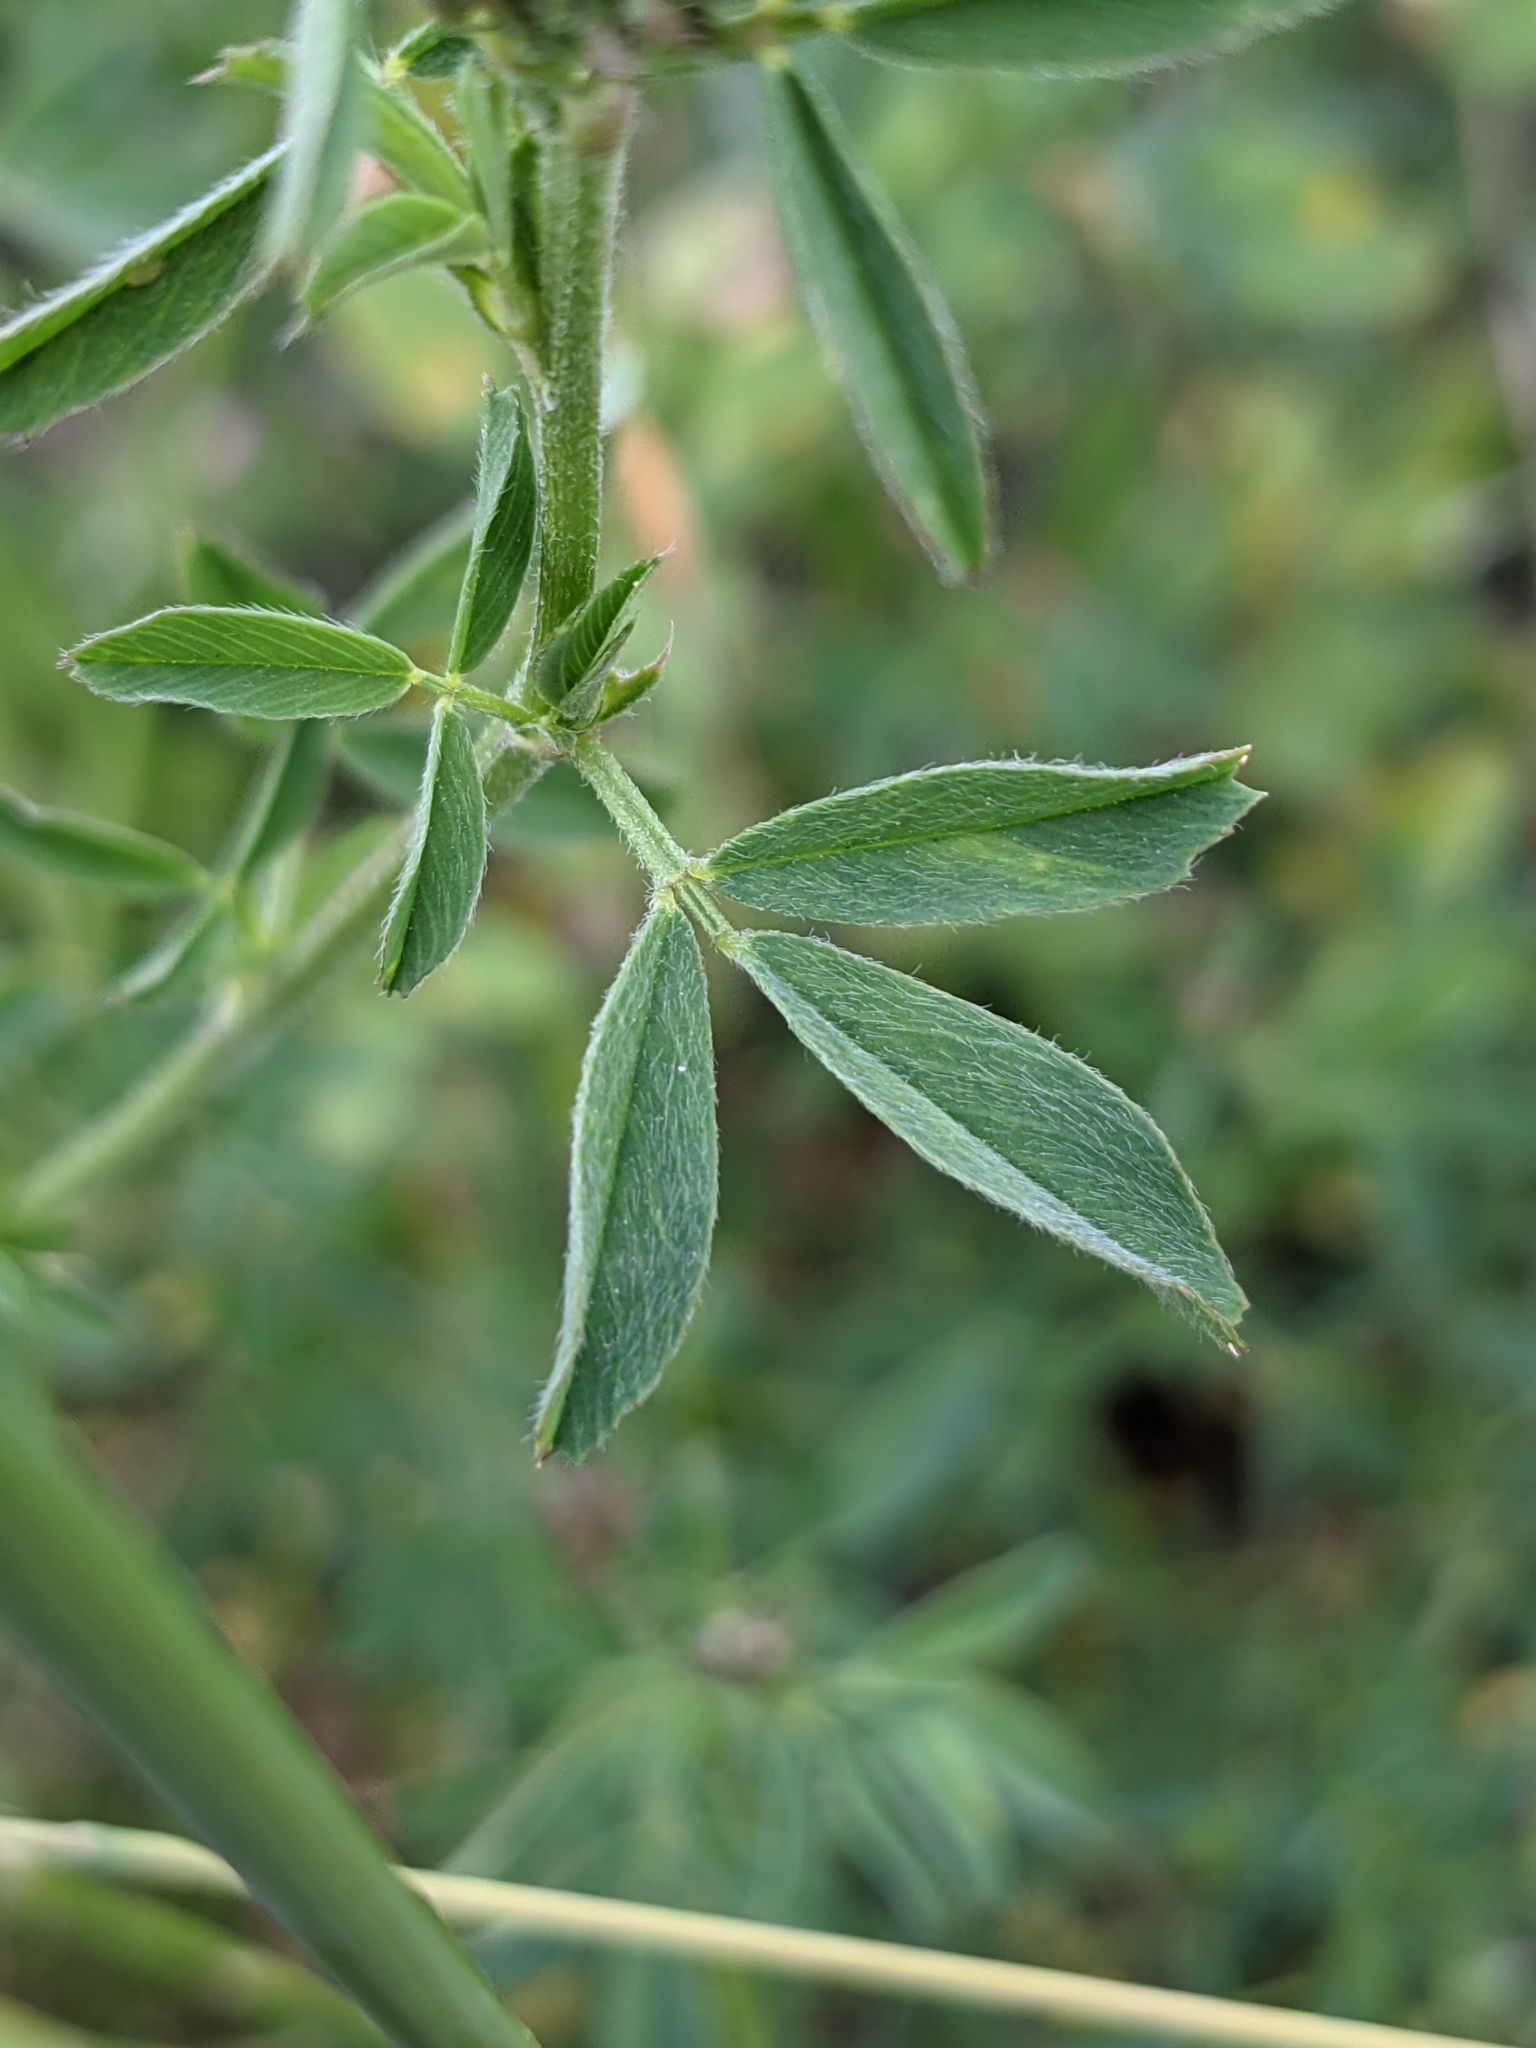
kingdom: Plantae
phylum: Tracheophyta
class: Magnoliopsida
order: Fabales
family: Fabaceae
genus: Medicago
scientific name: Medicago sativa
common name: Alfalfa
